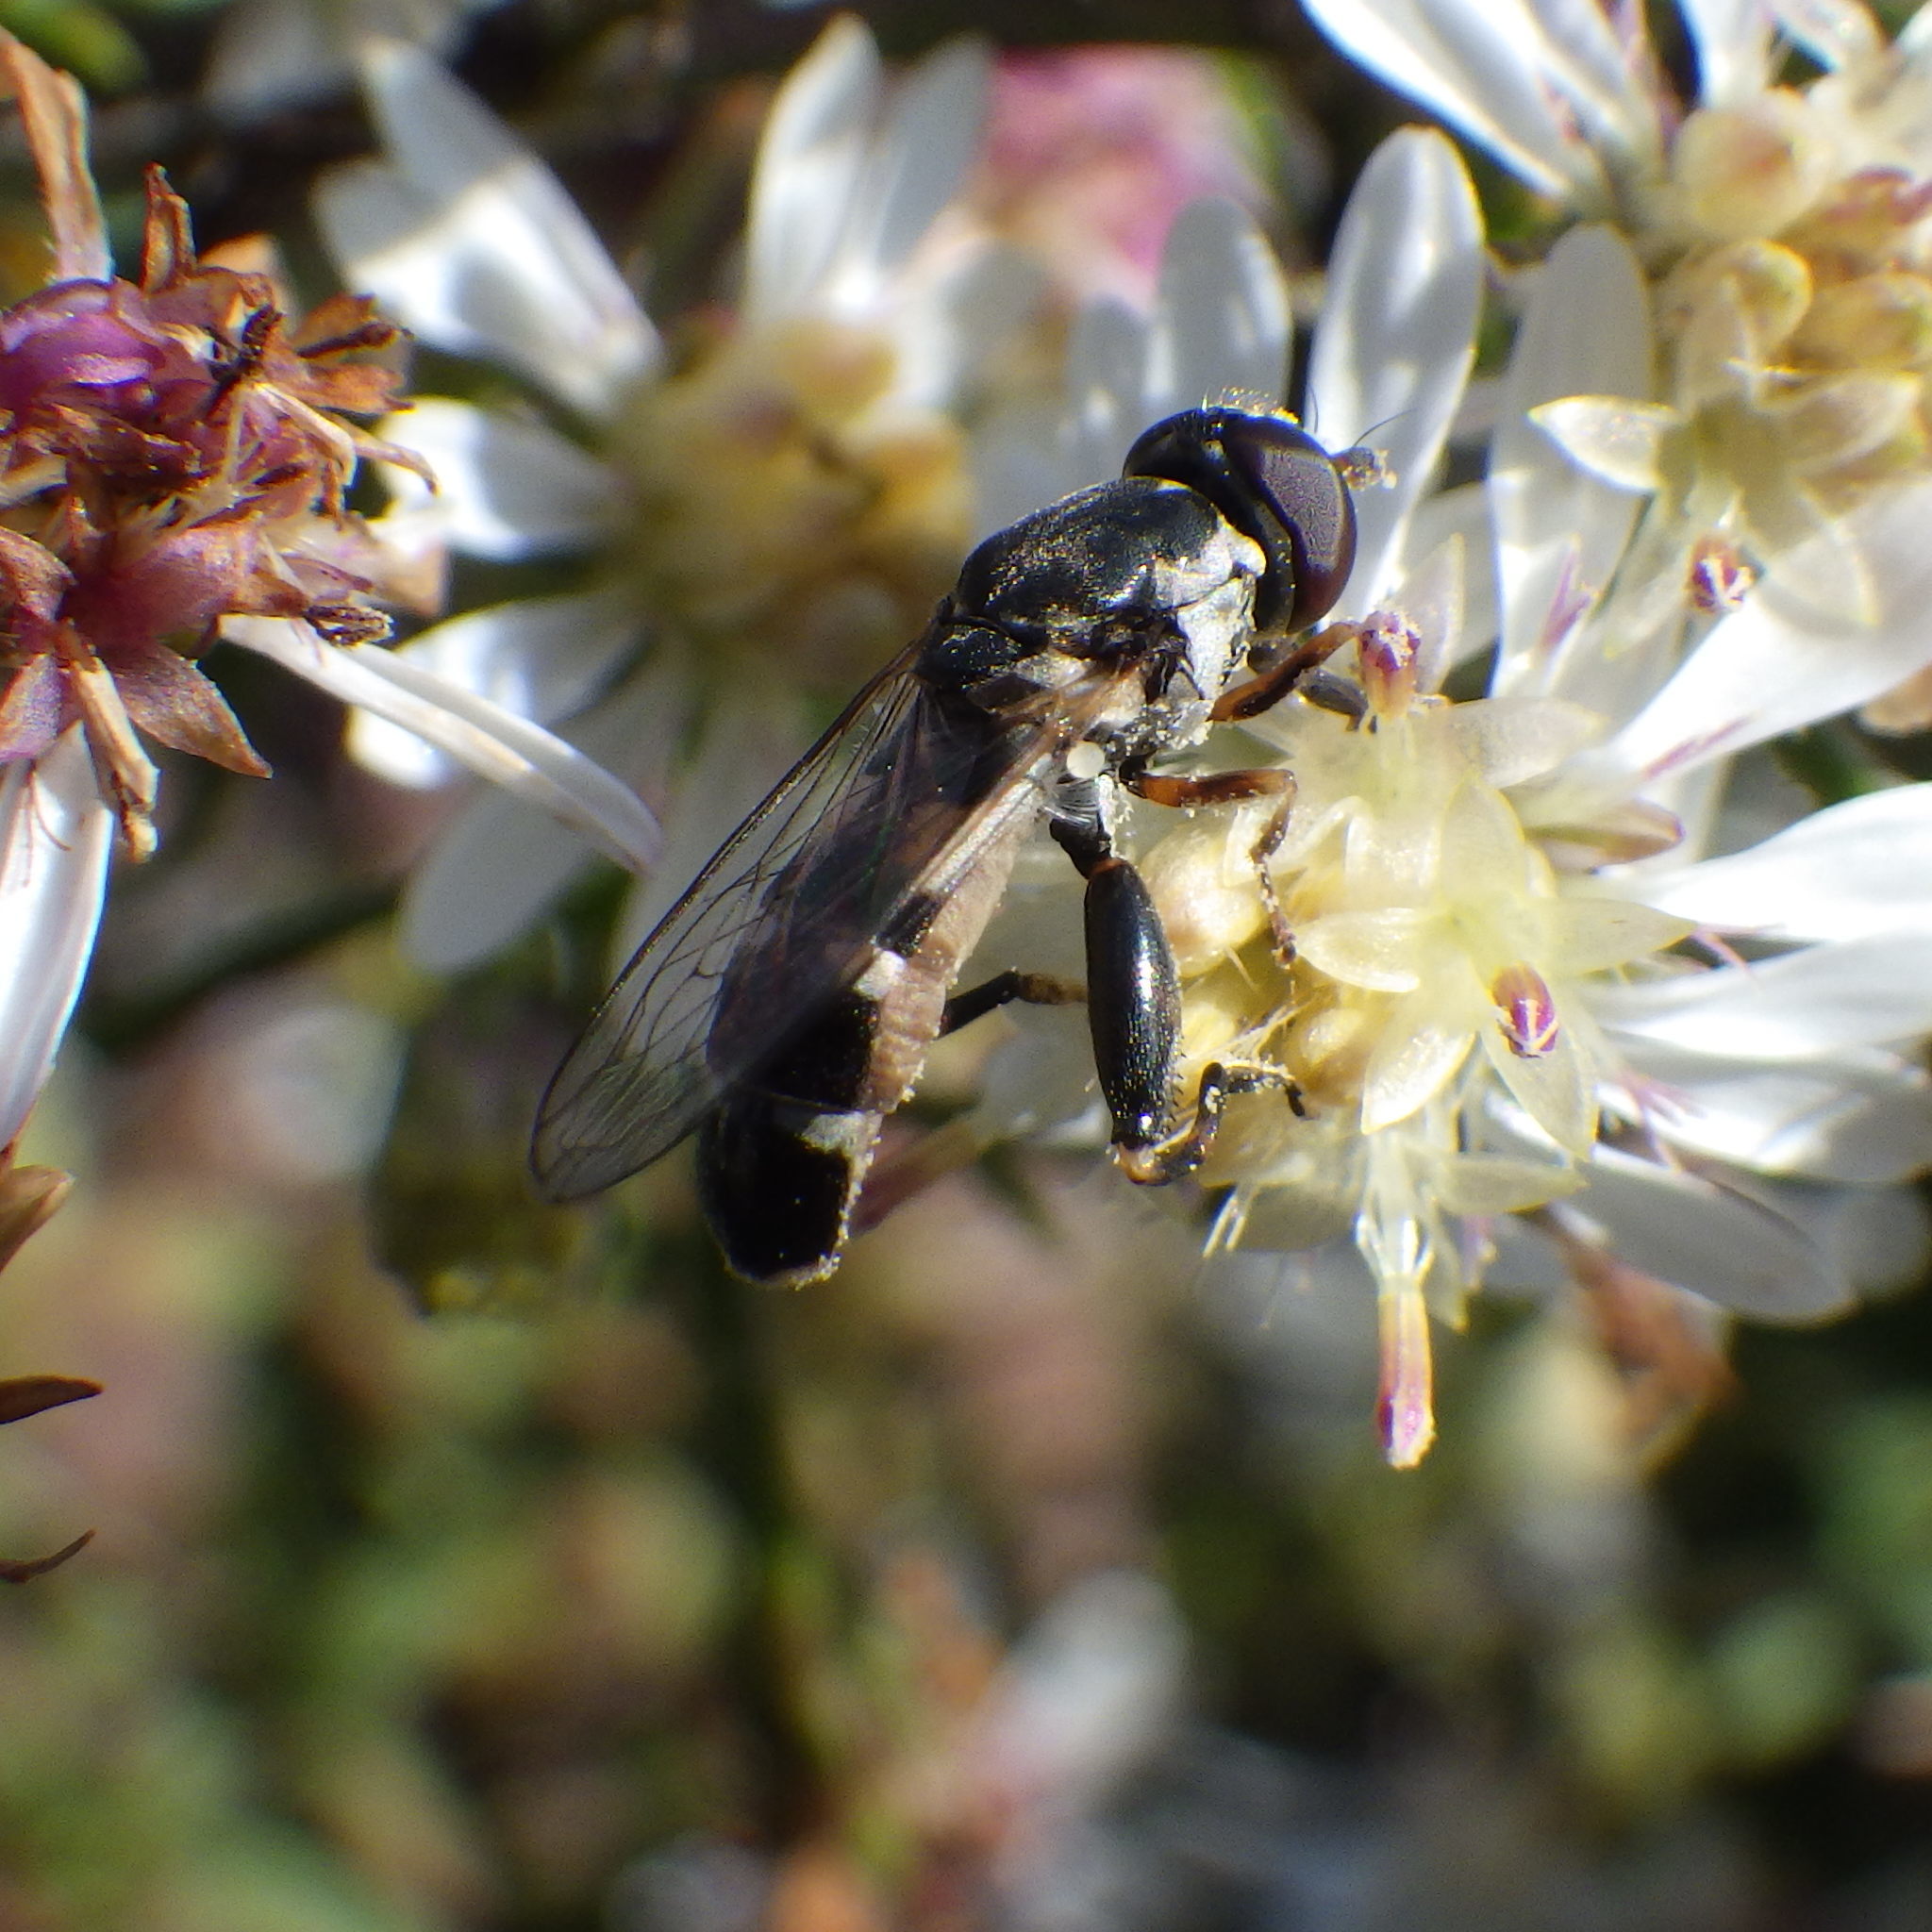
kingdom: Animalia
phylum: Arthropoda
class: Insecta
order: Diptera
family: Syrphidae
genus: Syritta
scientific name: Syritta pipiens
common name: Hover fly
